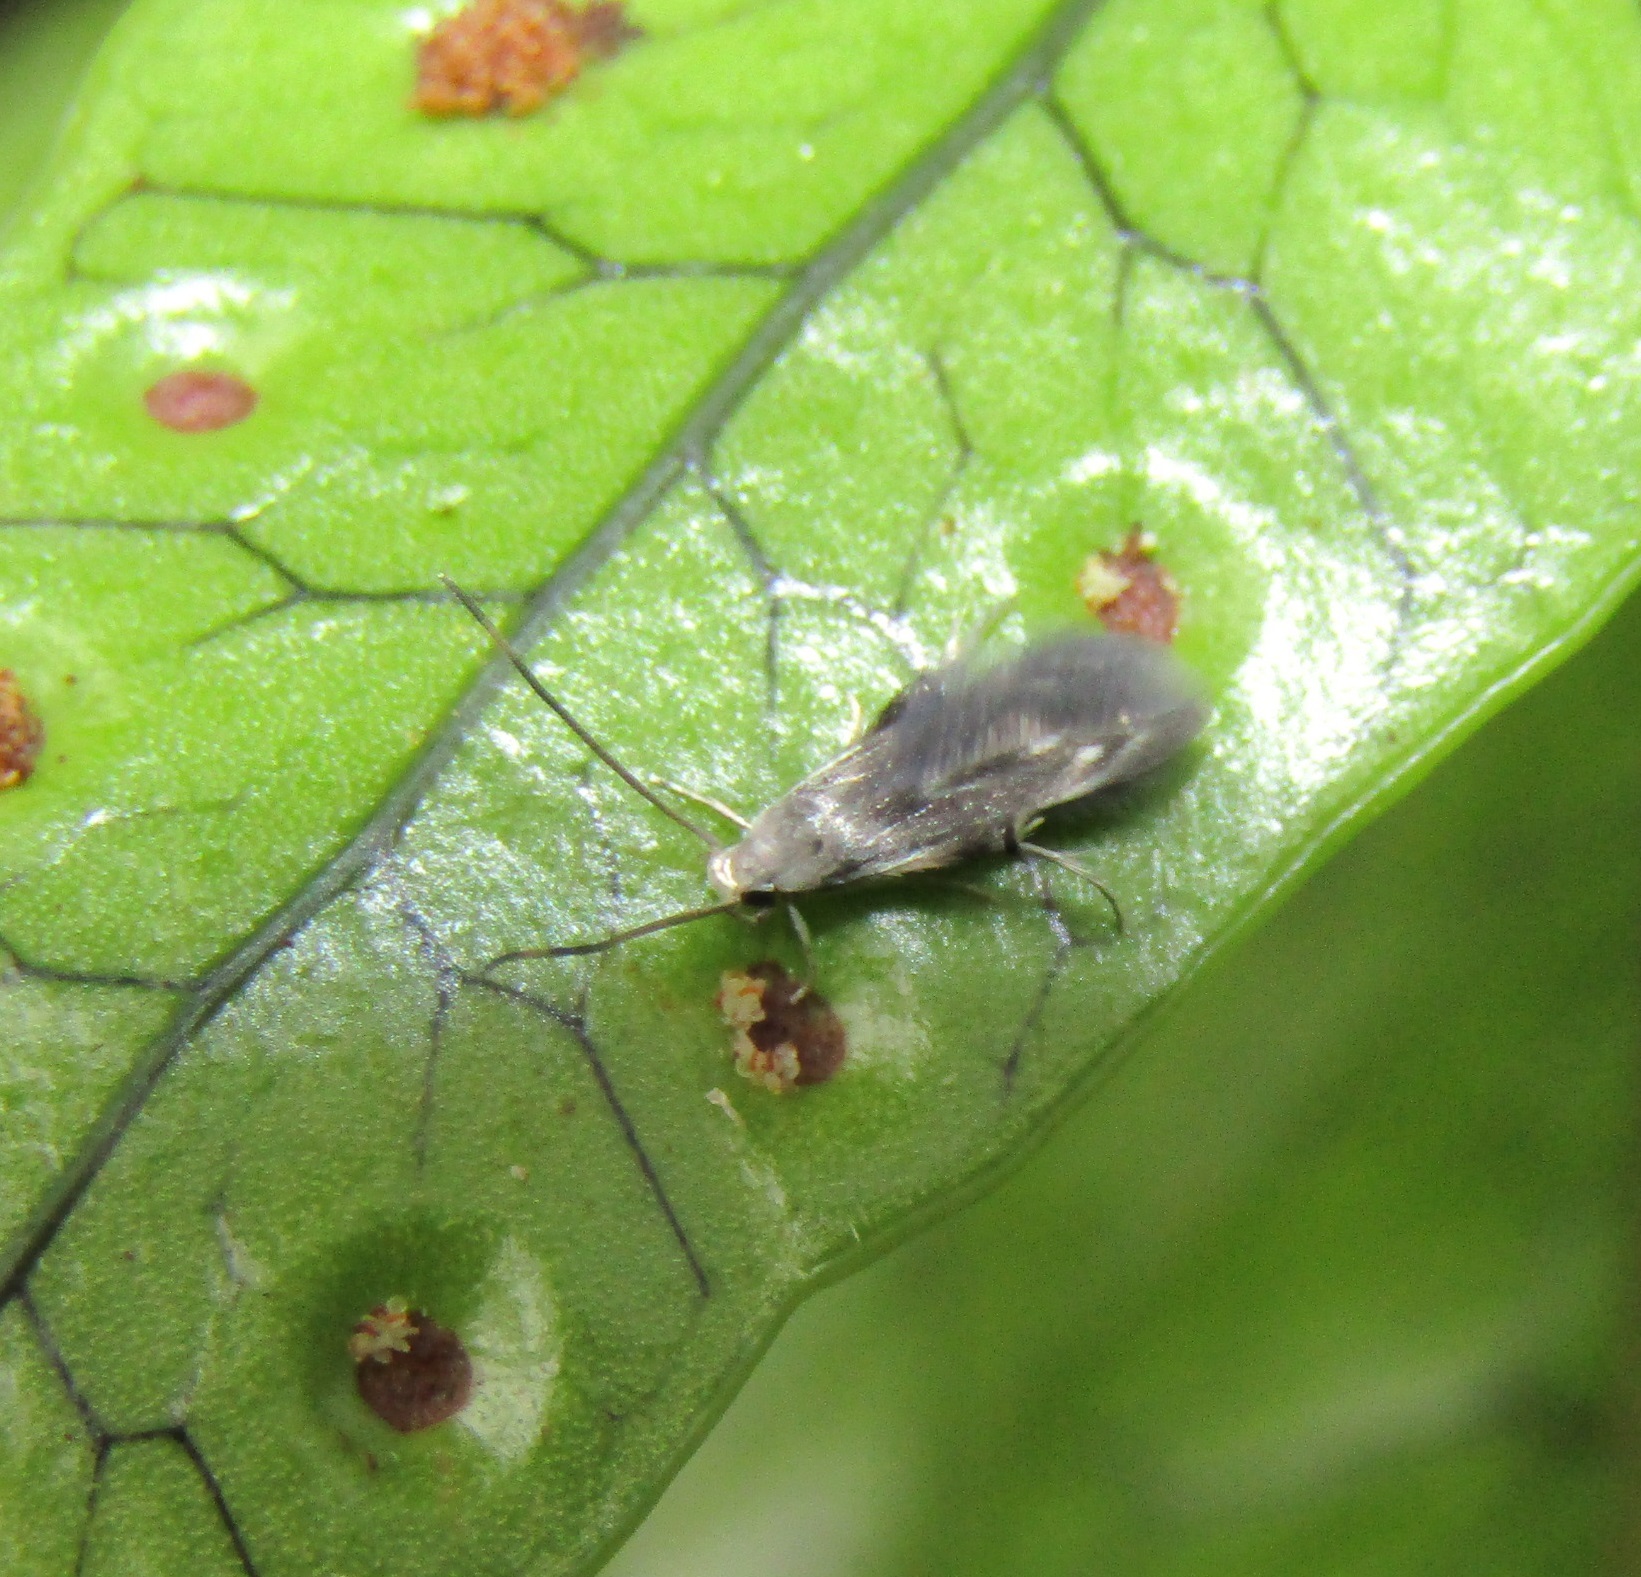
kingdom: Animalia
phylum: Arthropoda
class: Insecta
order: Lepidoptera
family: Stathmopodidae
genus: Thylacosceles
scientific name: Thylacosceles radians
